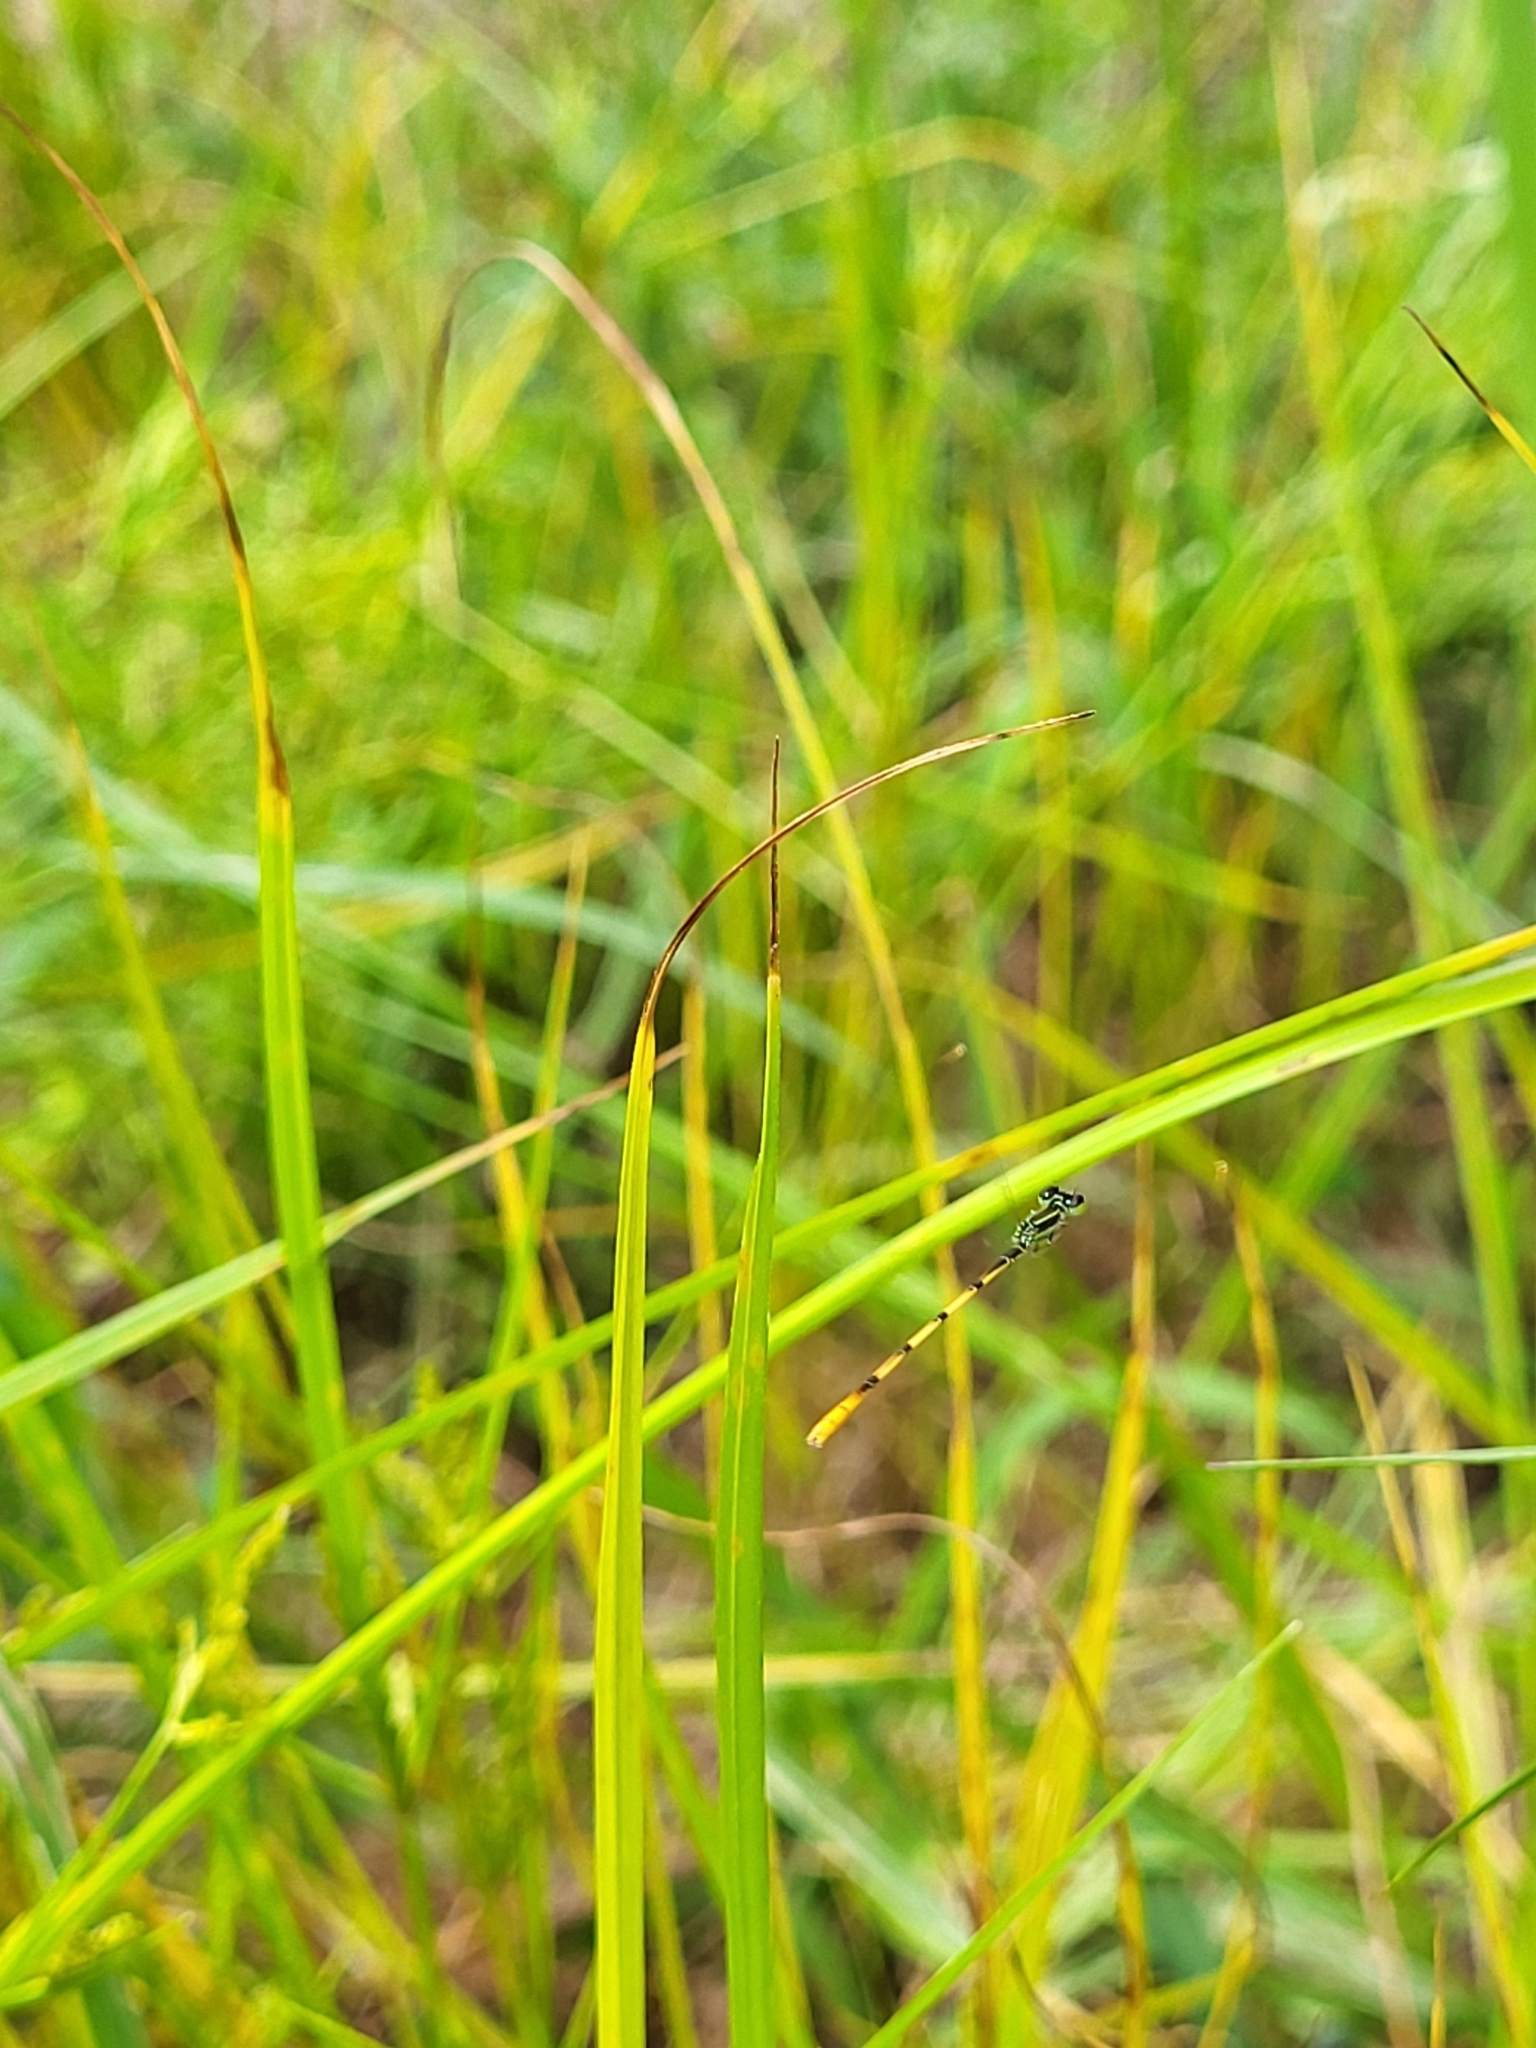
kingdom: Animalia
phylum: Arthropoda
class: Insecta
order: Odonata
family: Coenagrionidae
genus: Ischnura
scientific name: Ischnura hastata
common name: Citrine forktail
